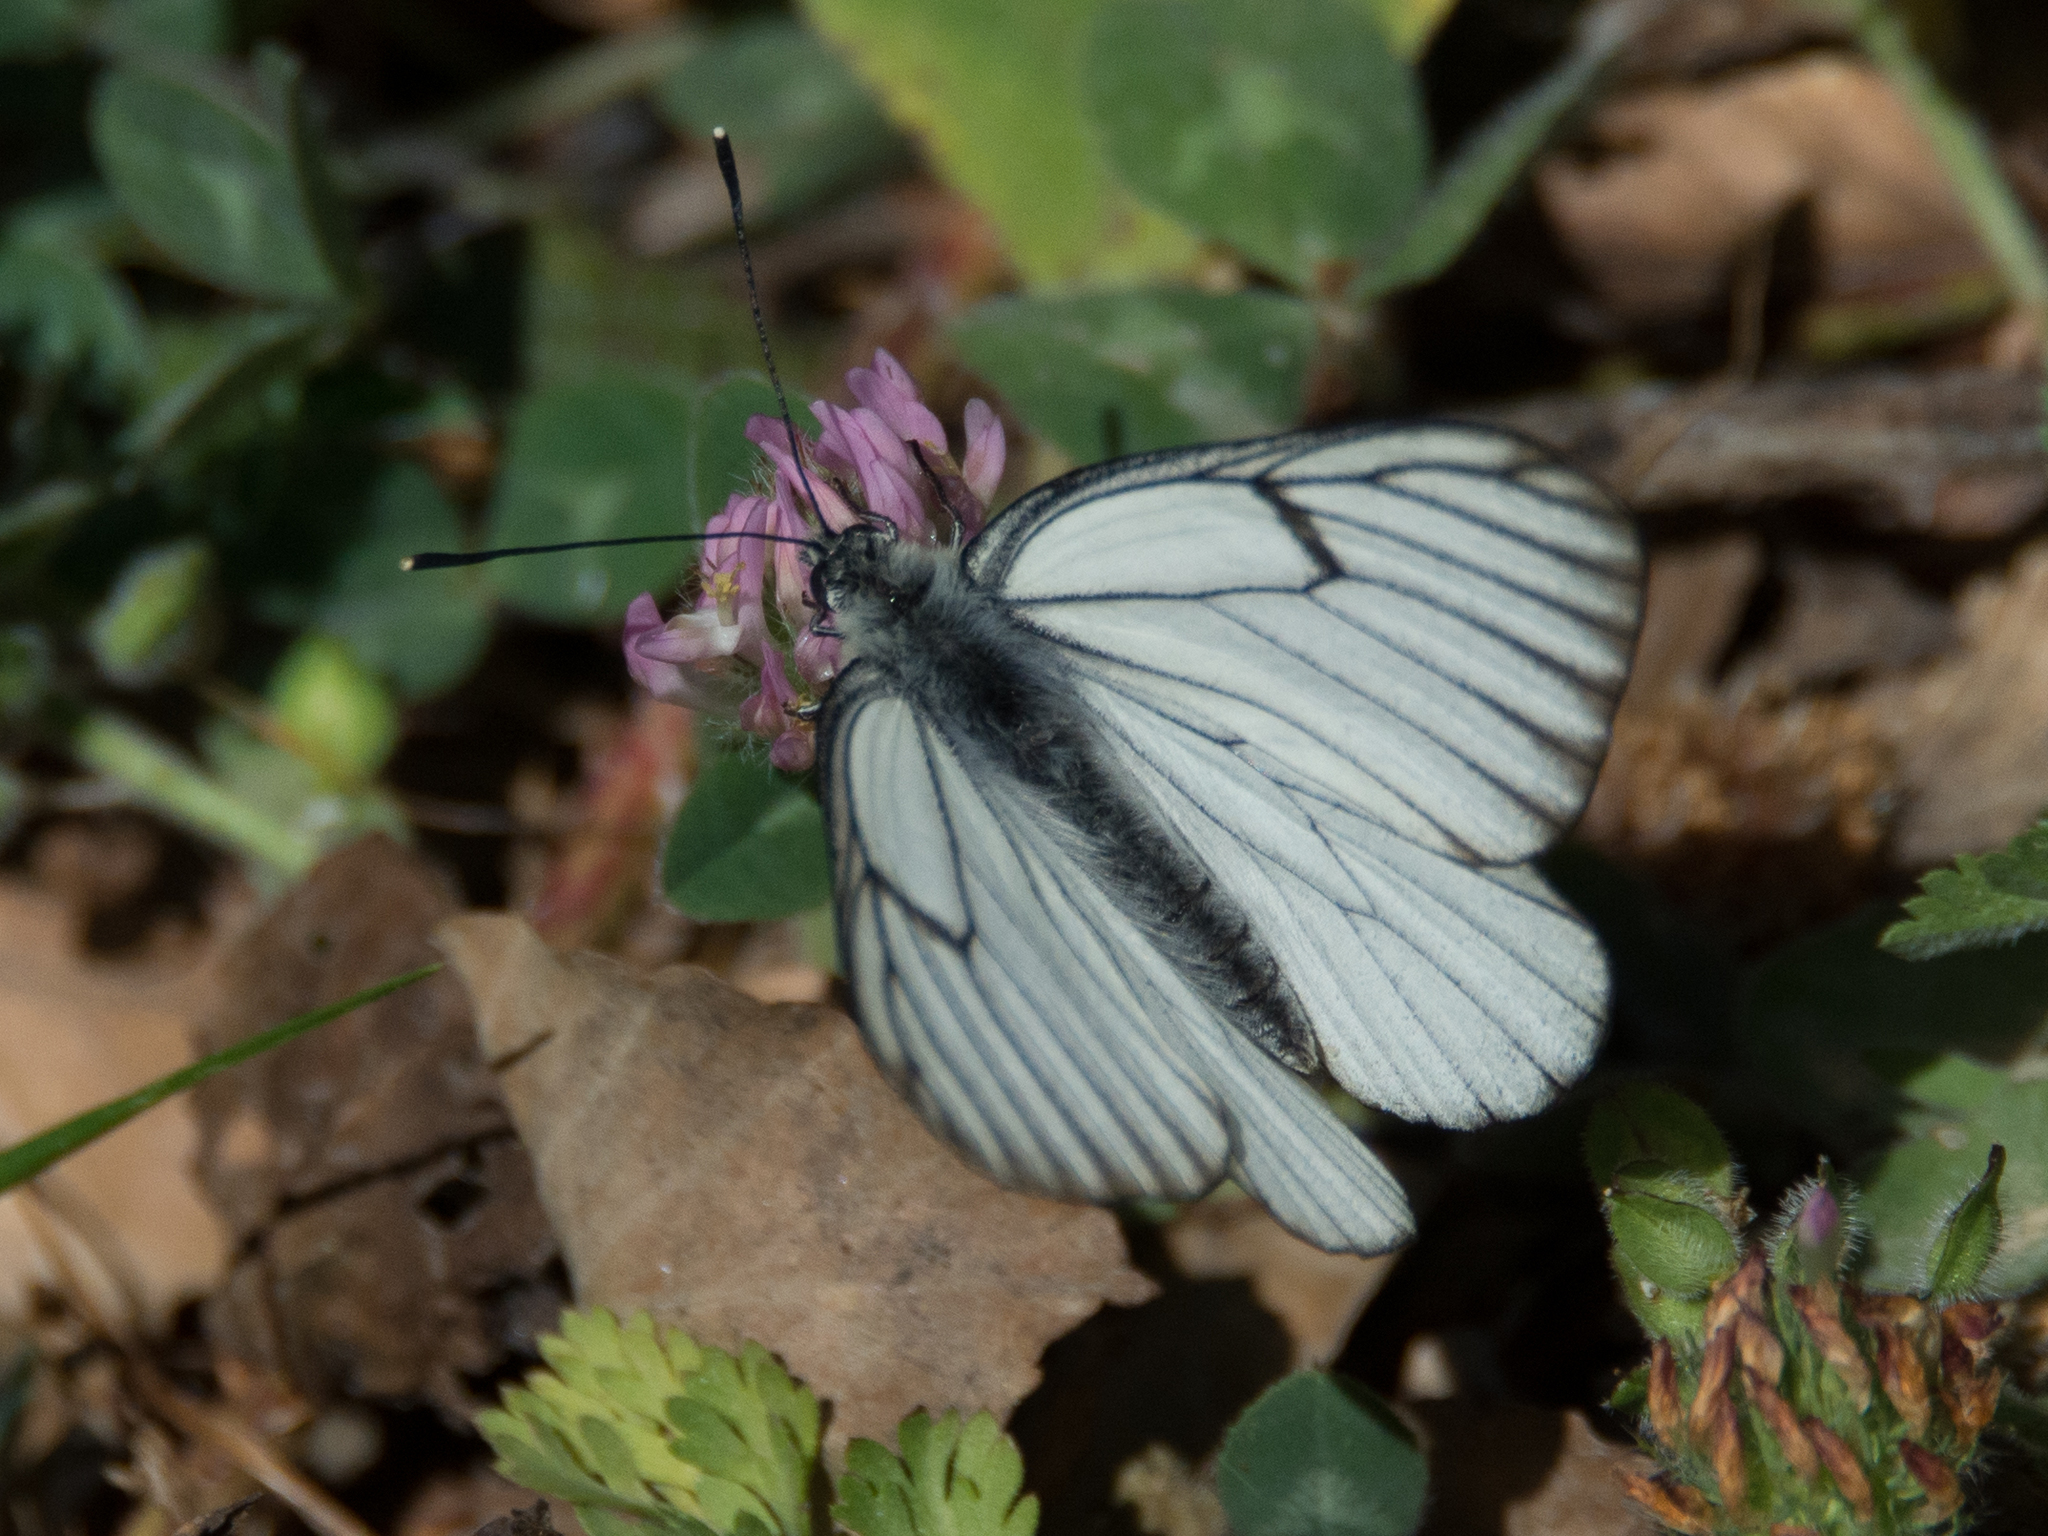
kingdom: Animalia
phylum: Arthropoda
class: Insecta
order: Lepidoptera
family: Pieridae
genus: Aporia
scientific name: Aporia crataegi
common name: Black-veined white
